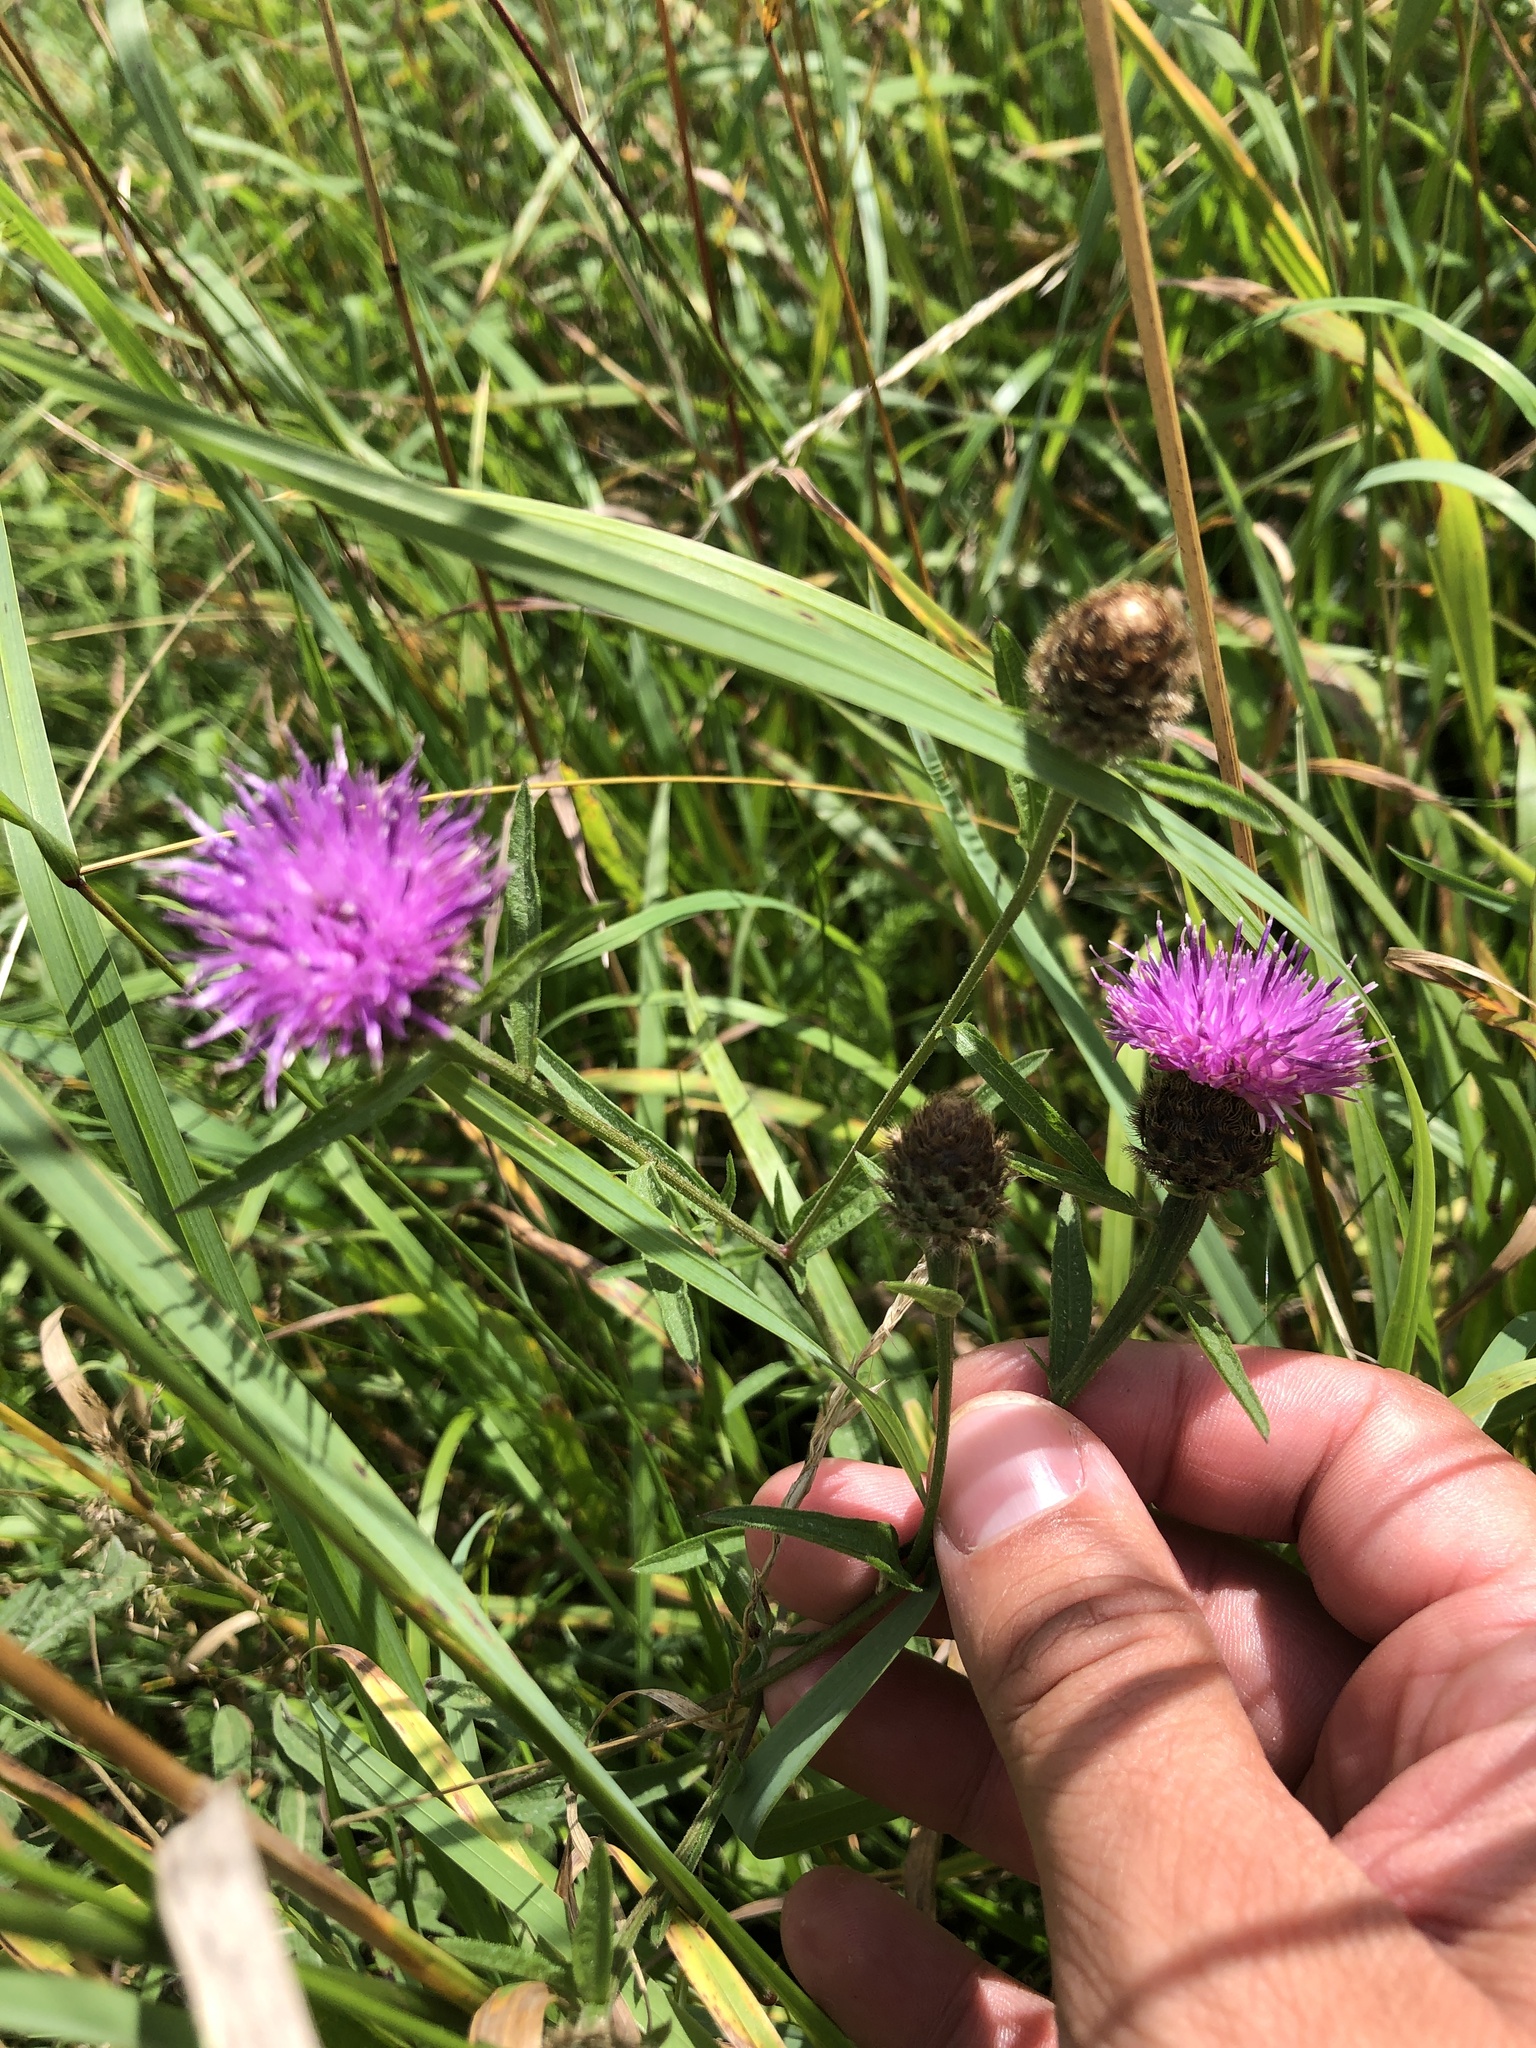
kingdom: Plantae
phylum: Tracheophyta
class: Magnoliopsida
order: Asterales
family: Asteraceae
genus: Centaurea
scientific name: Centaurea nigra
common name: Lesser knapweed
